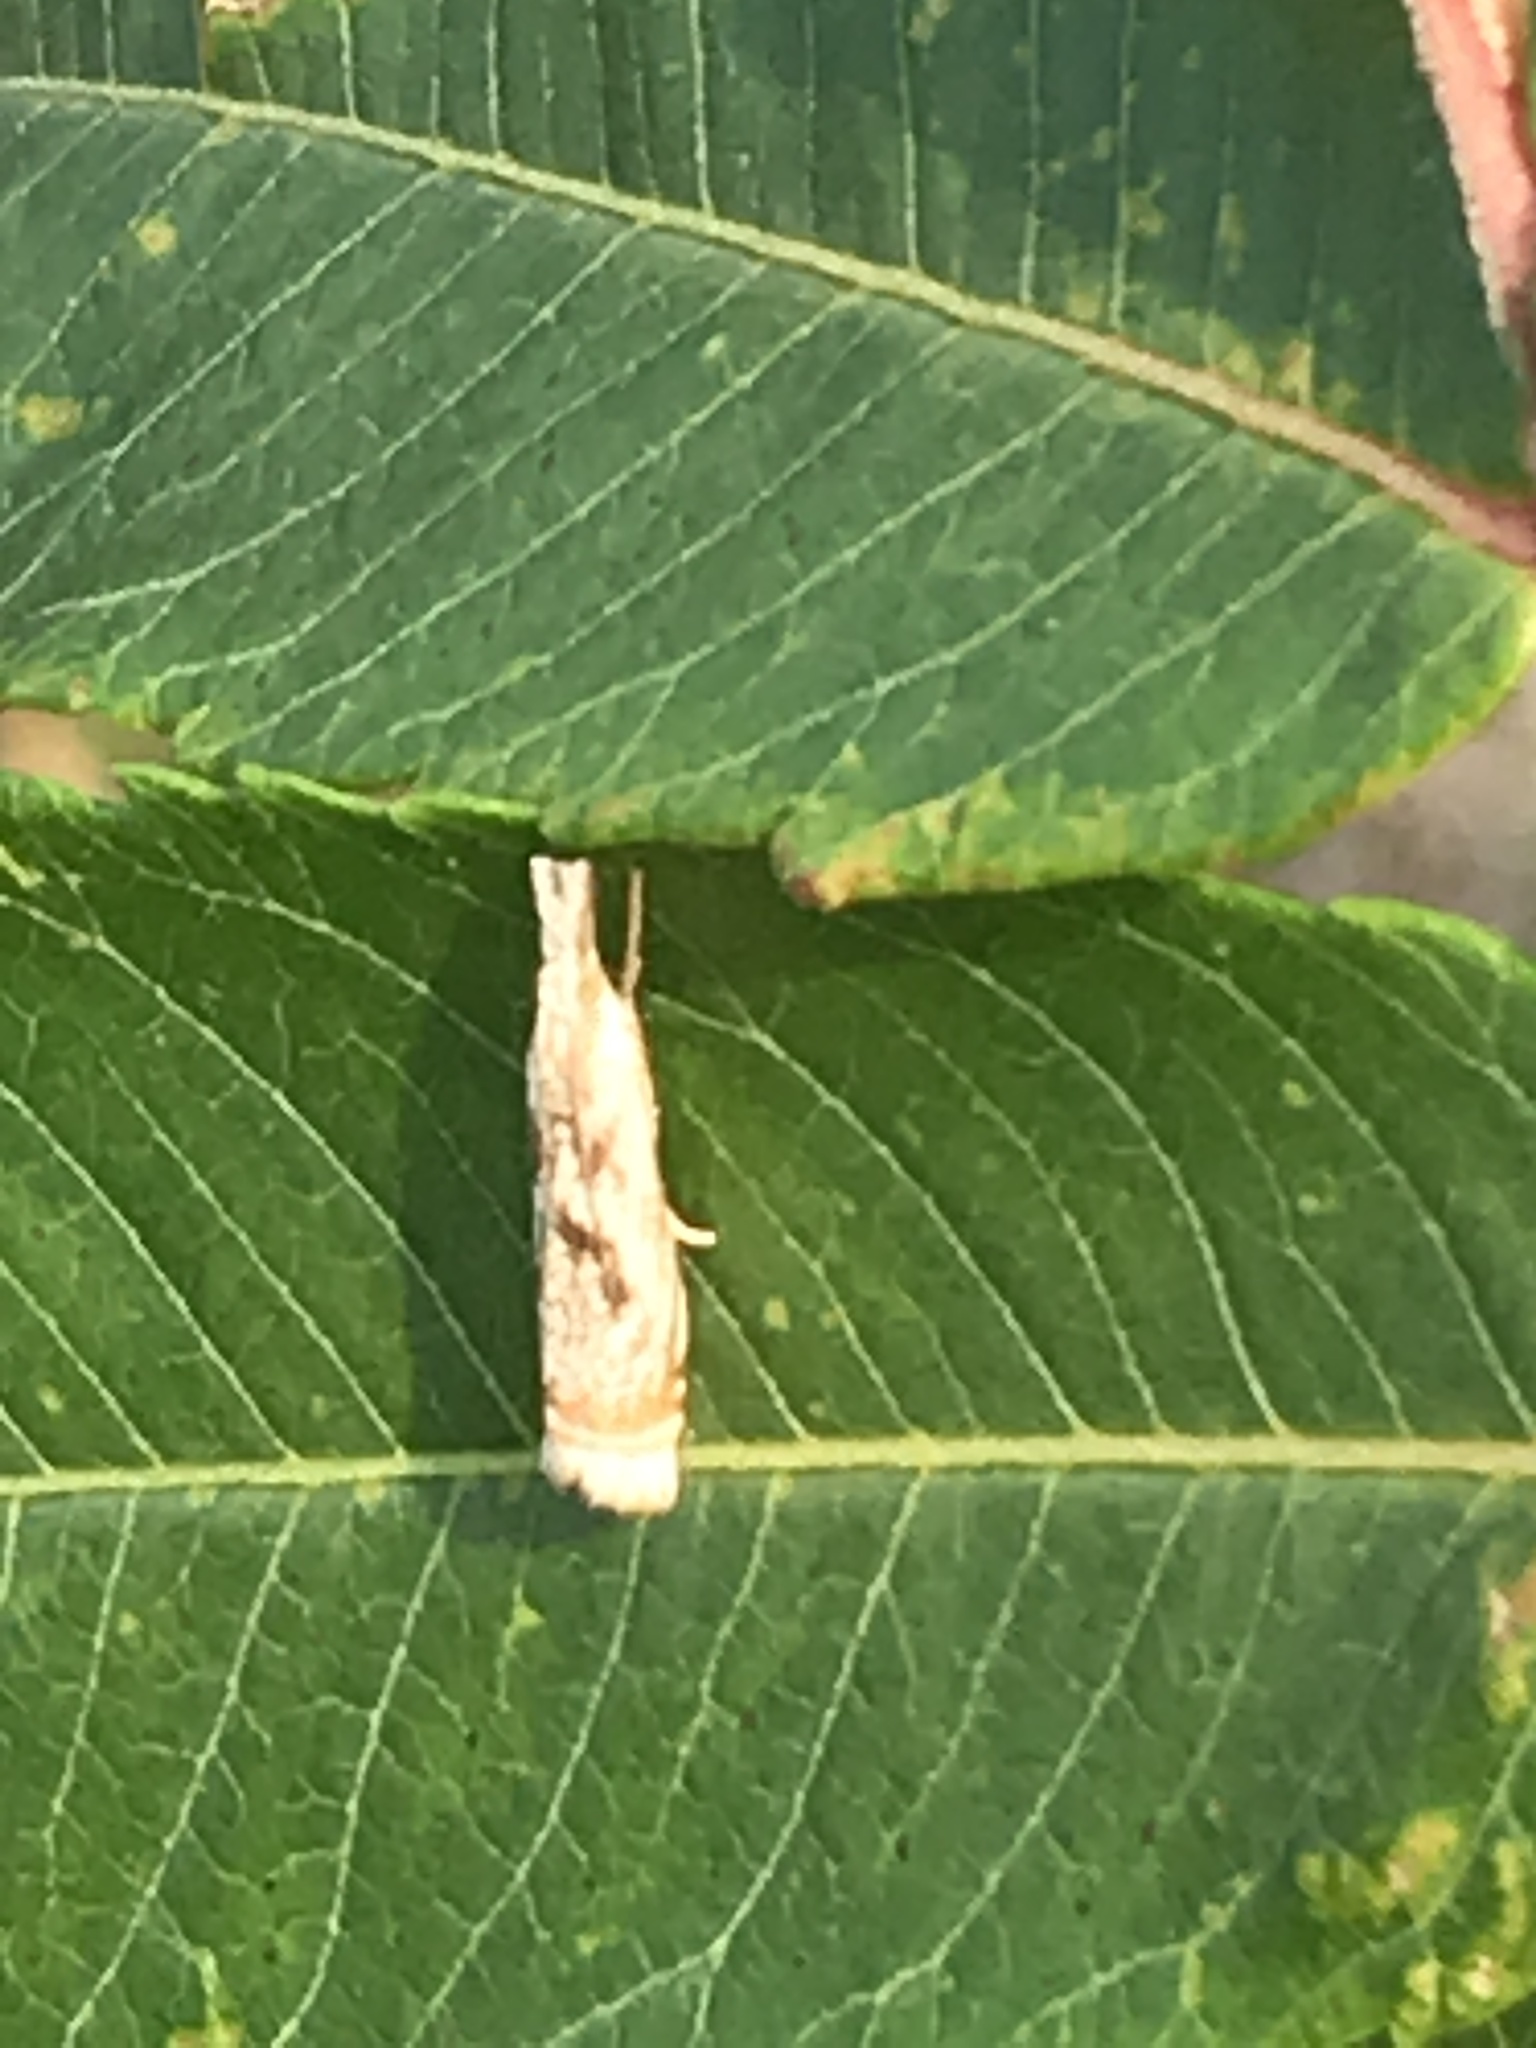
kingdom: Animalia
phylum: Arthropoda
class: Insecta
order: Lepidoptera
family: Crambidae
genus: Microcrambus
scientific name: Microcrambus elegans
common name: Elegant grass-veneer
